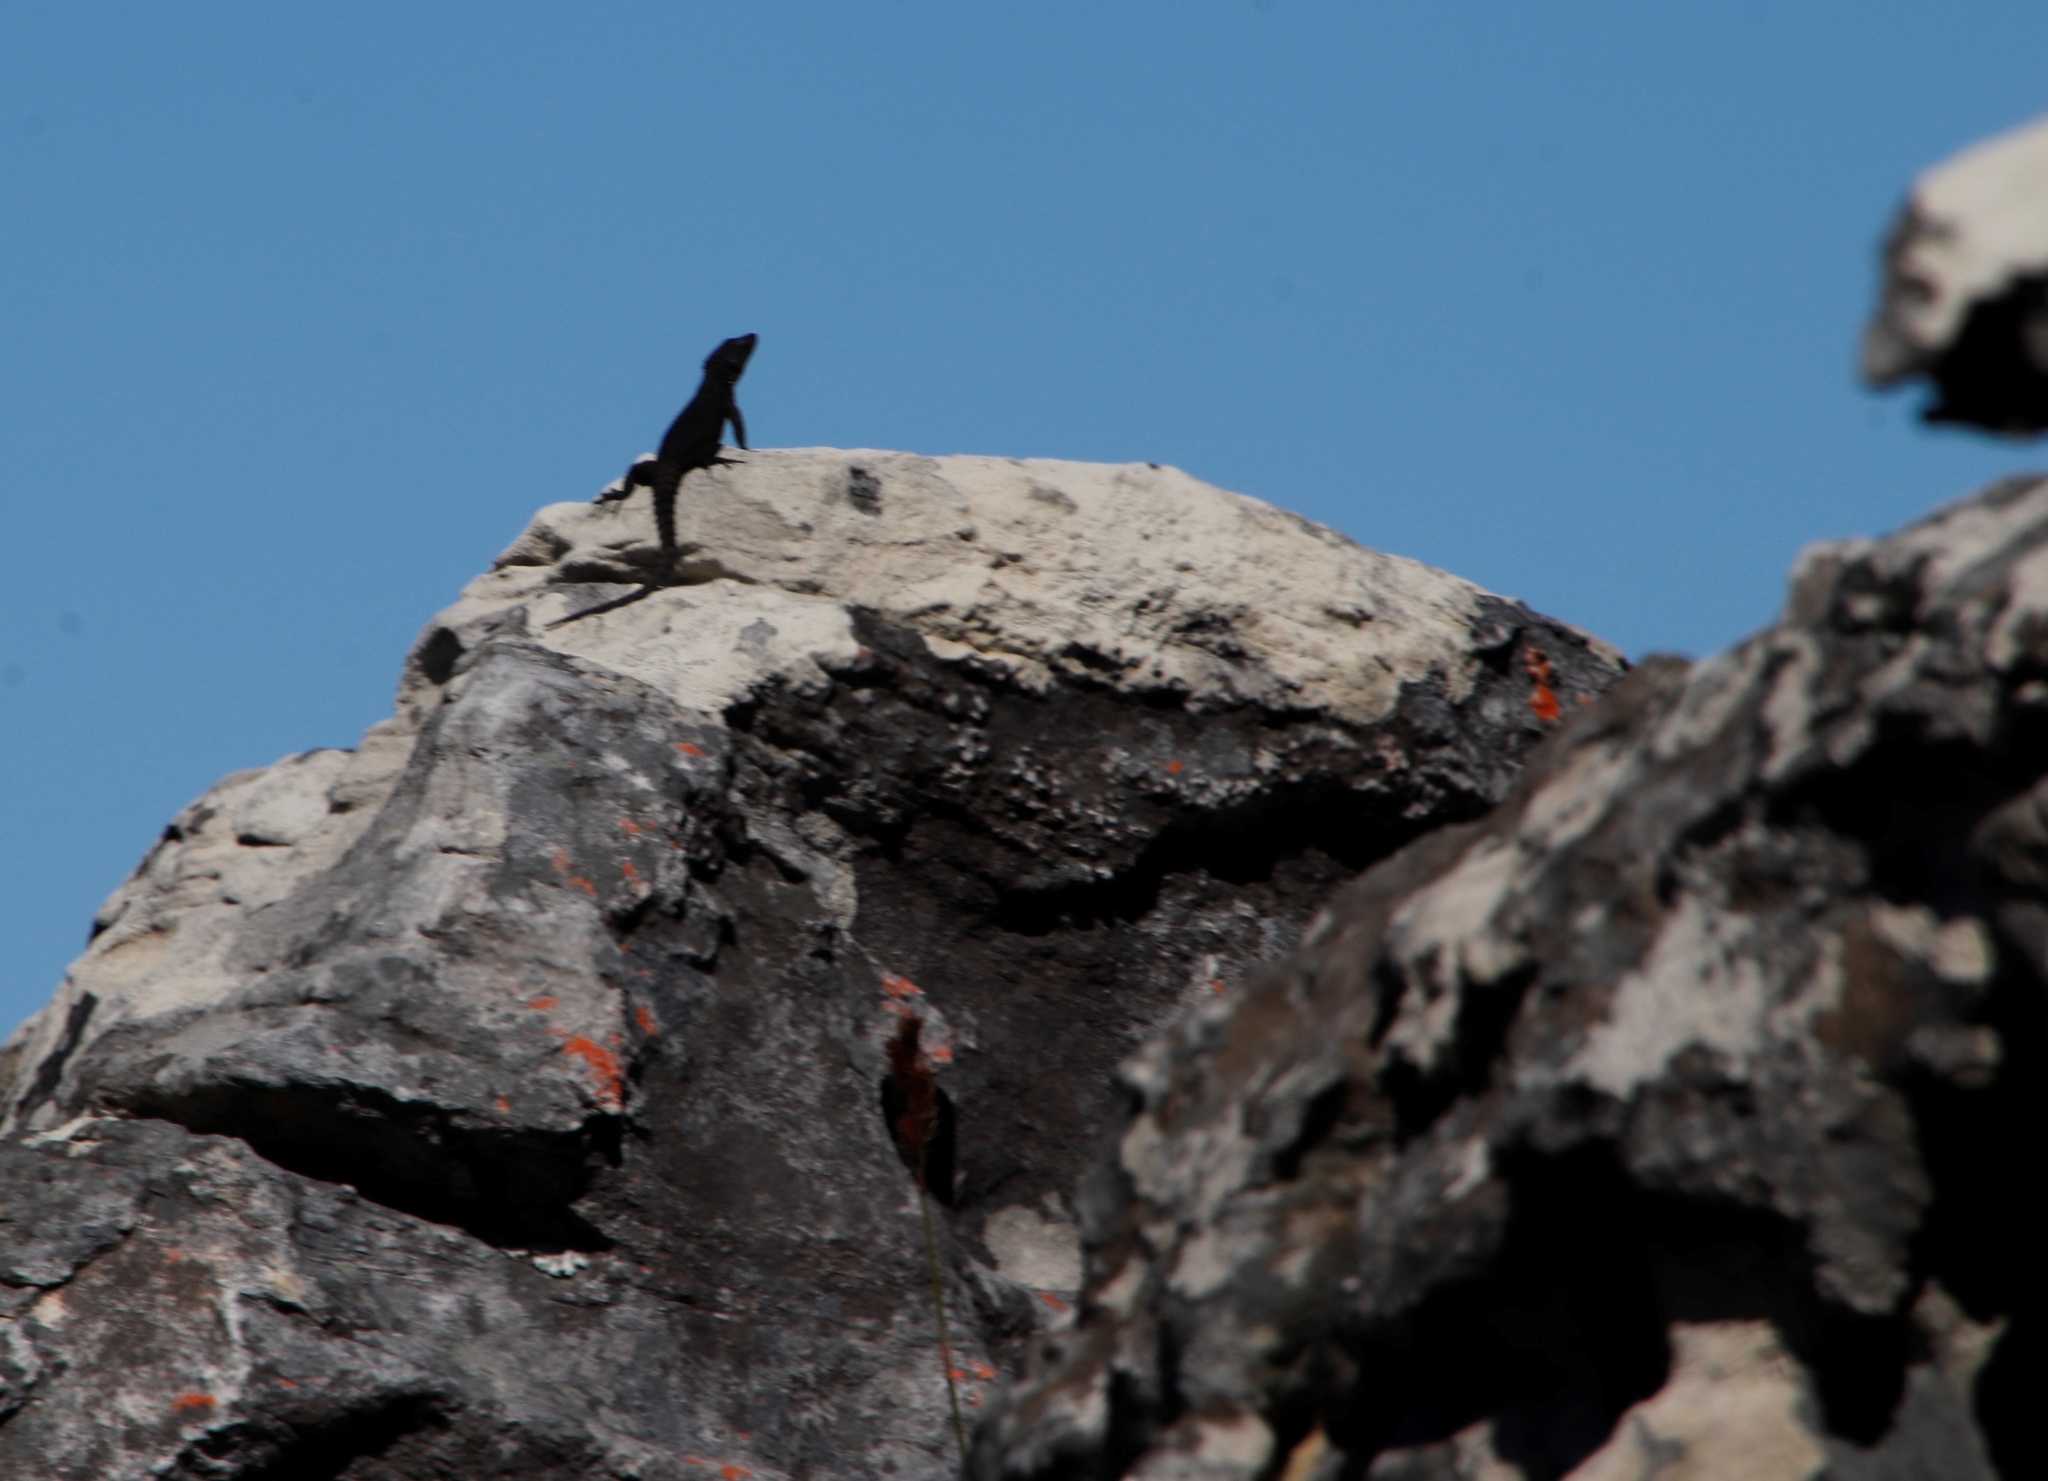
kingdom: Animalia
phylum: Chordata
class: Squamata
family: Cordylidae
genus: Cordylus
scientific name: Cordylus niger
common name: Black girdled lizard
